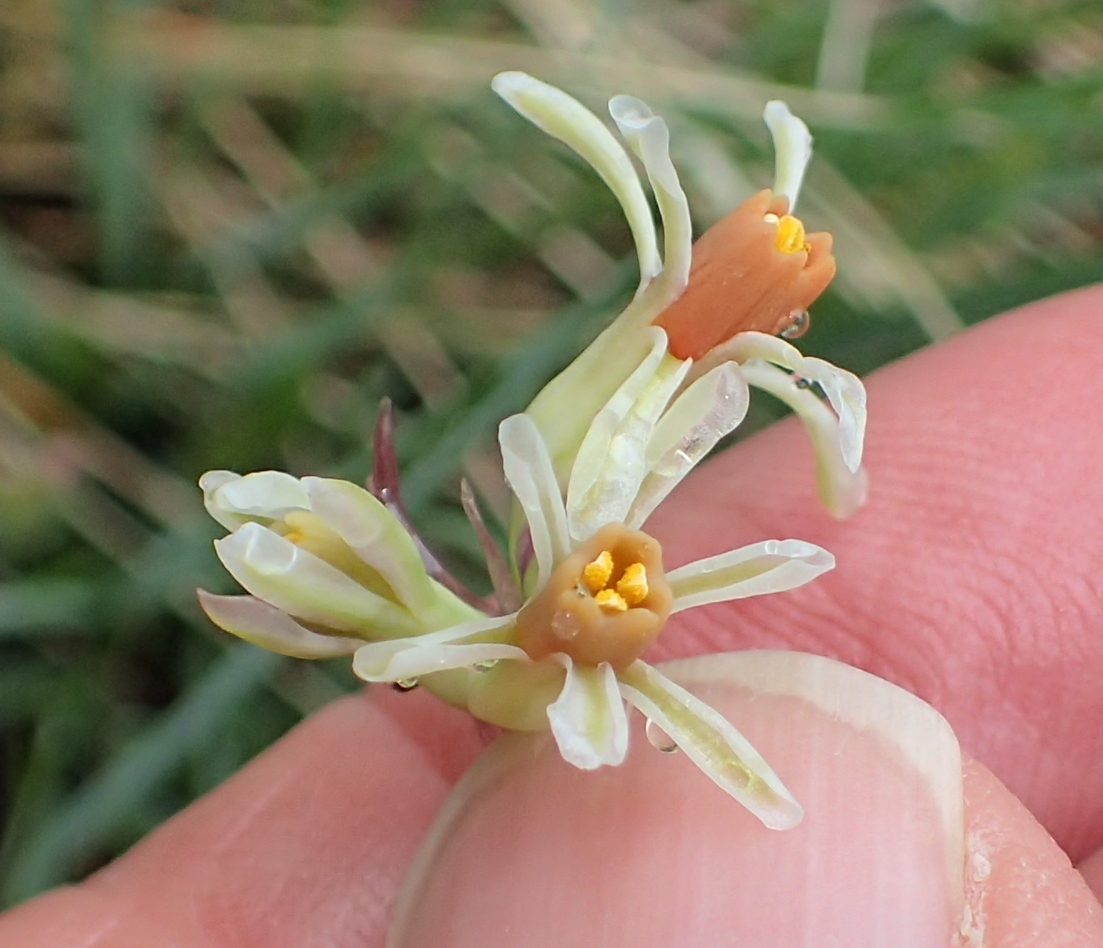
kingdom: Plantae
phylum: Tracheophyta
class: Liliopsida
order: Asparagales
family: Amaryllidaceae
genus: Tulbaghia
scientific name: Tulbaghia leucantha
